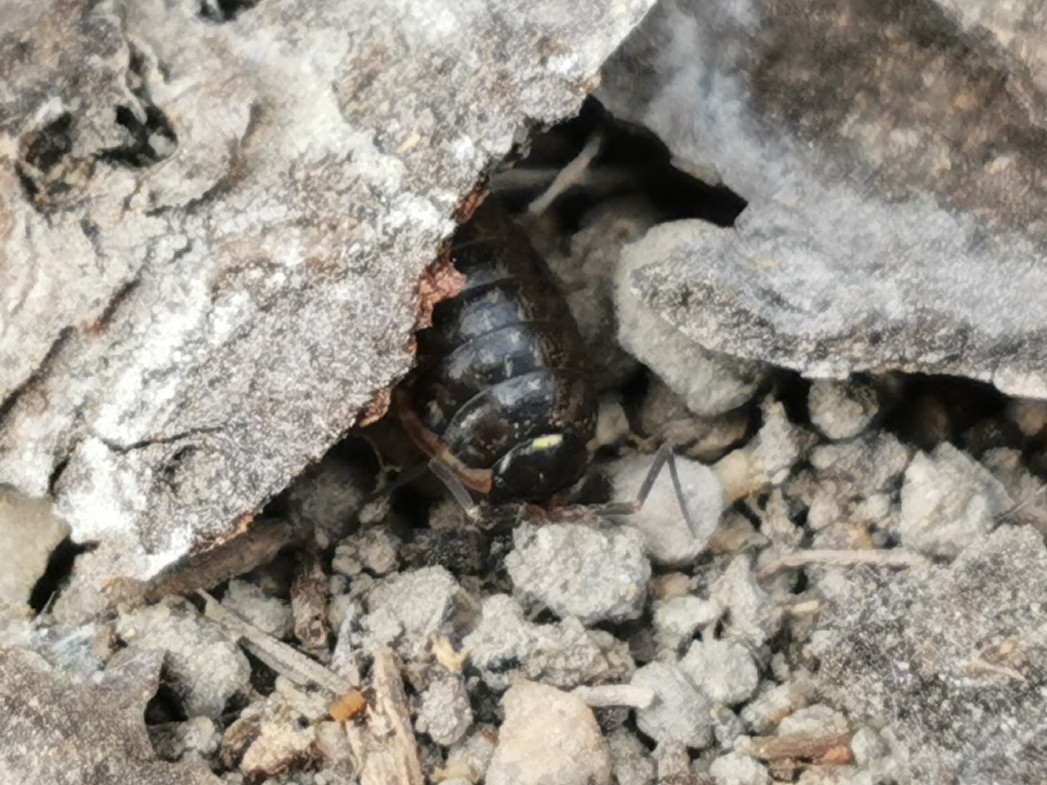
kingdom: Animalia
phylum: Arthropoda
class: Malacostraca
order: Isopoda
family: Philosciidae
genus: Philoscia
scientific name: Philoscia muscorum
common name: Common striped woodlouse
